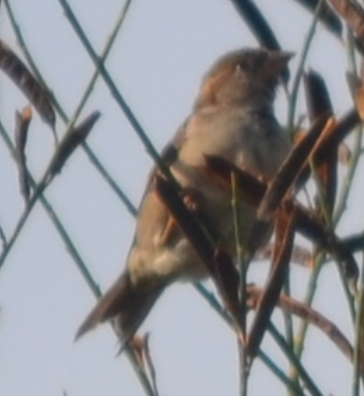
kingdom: Animalia
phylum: Chordata
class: Aves
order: Passeriformes
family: Passeridae
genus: Passer
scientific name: Passer domesticus
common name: House sparrow
